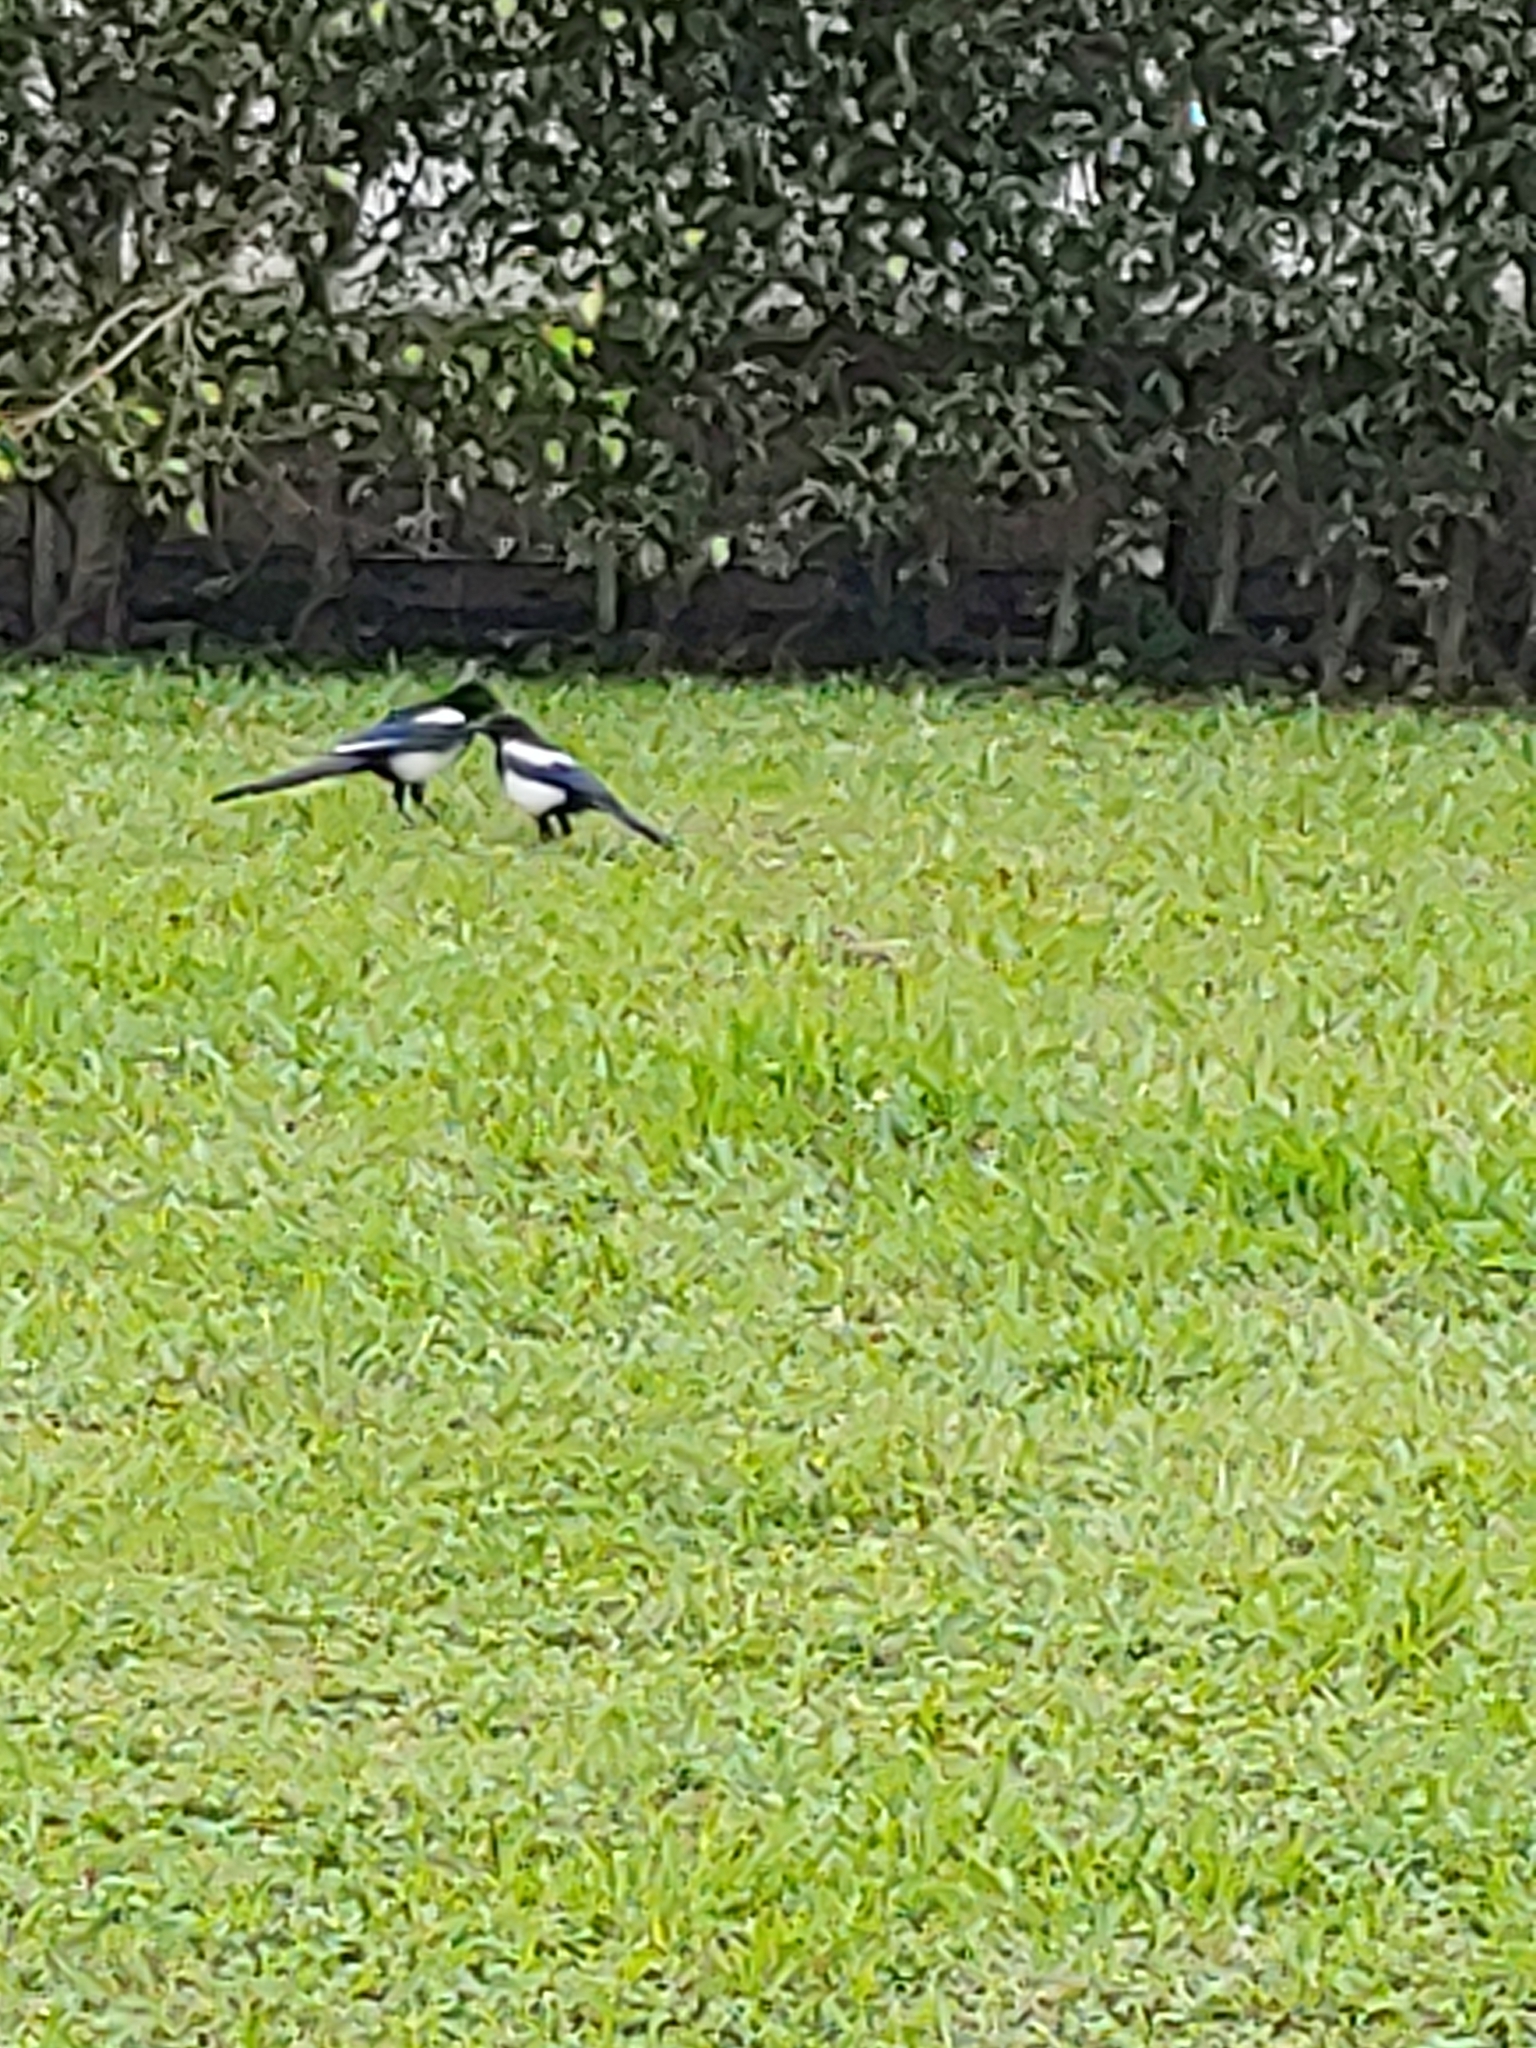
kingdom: Animalia
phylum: Chordata
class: Aves
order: Passeriformes
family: Corvidae
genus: Pica
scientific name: Pica serica
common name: Oriental magpie
